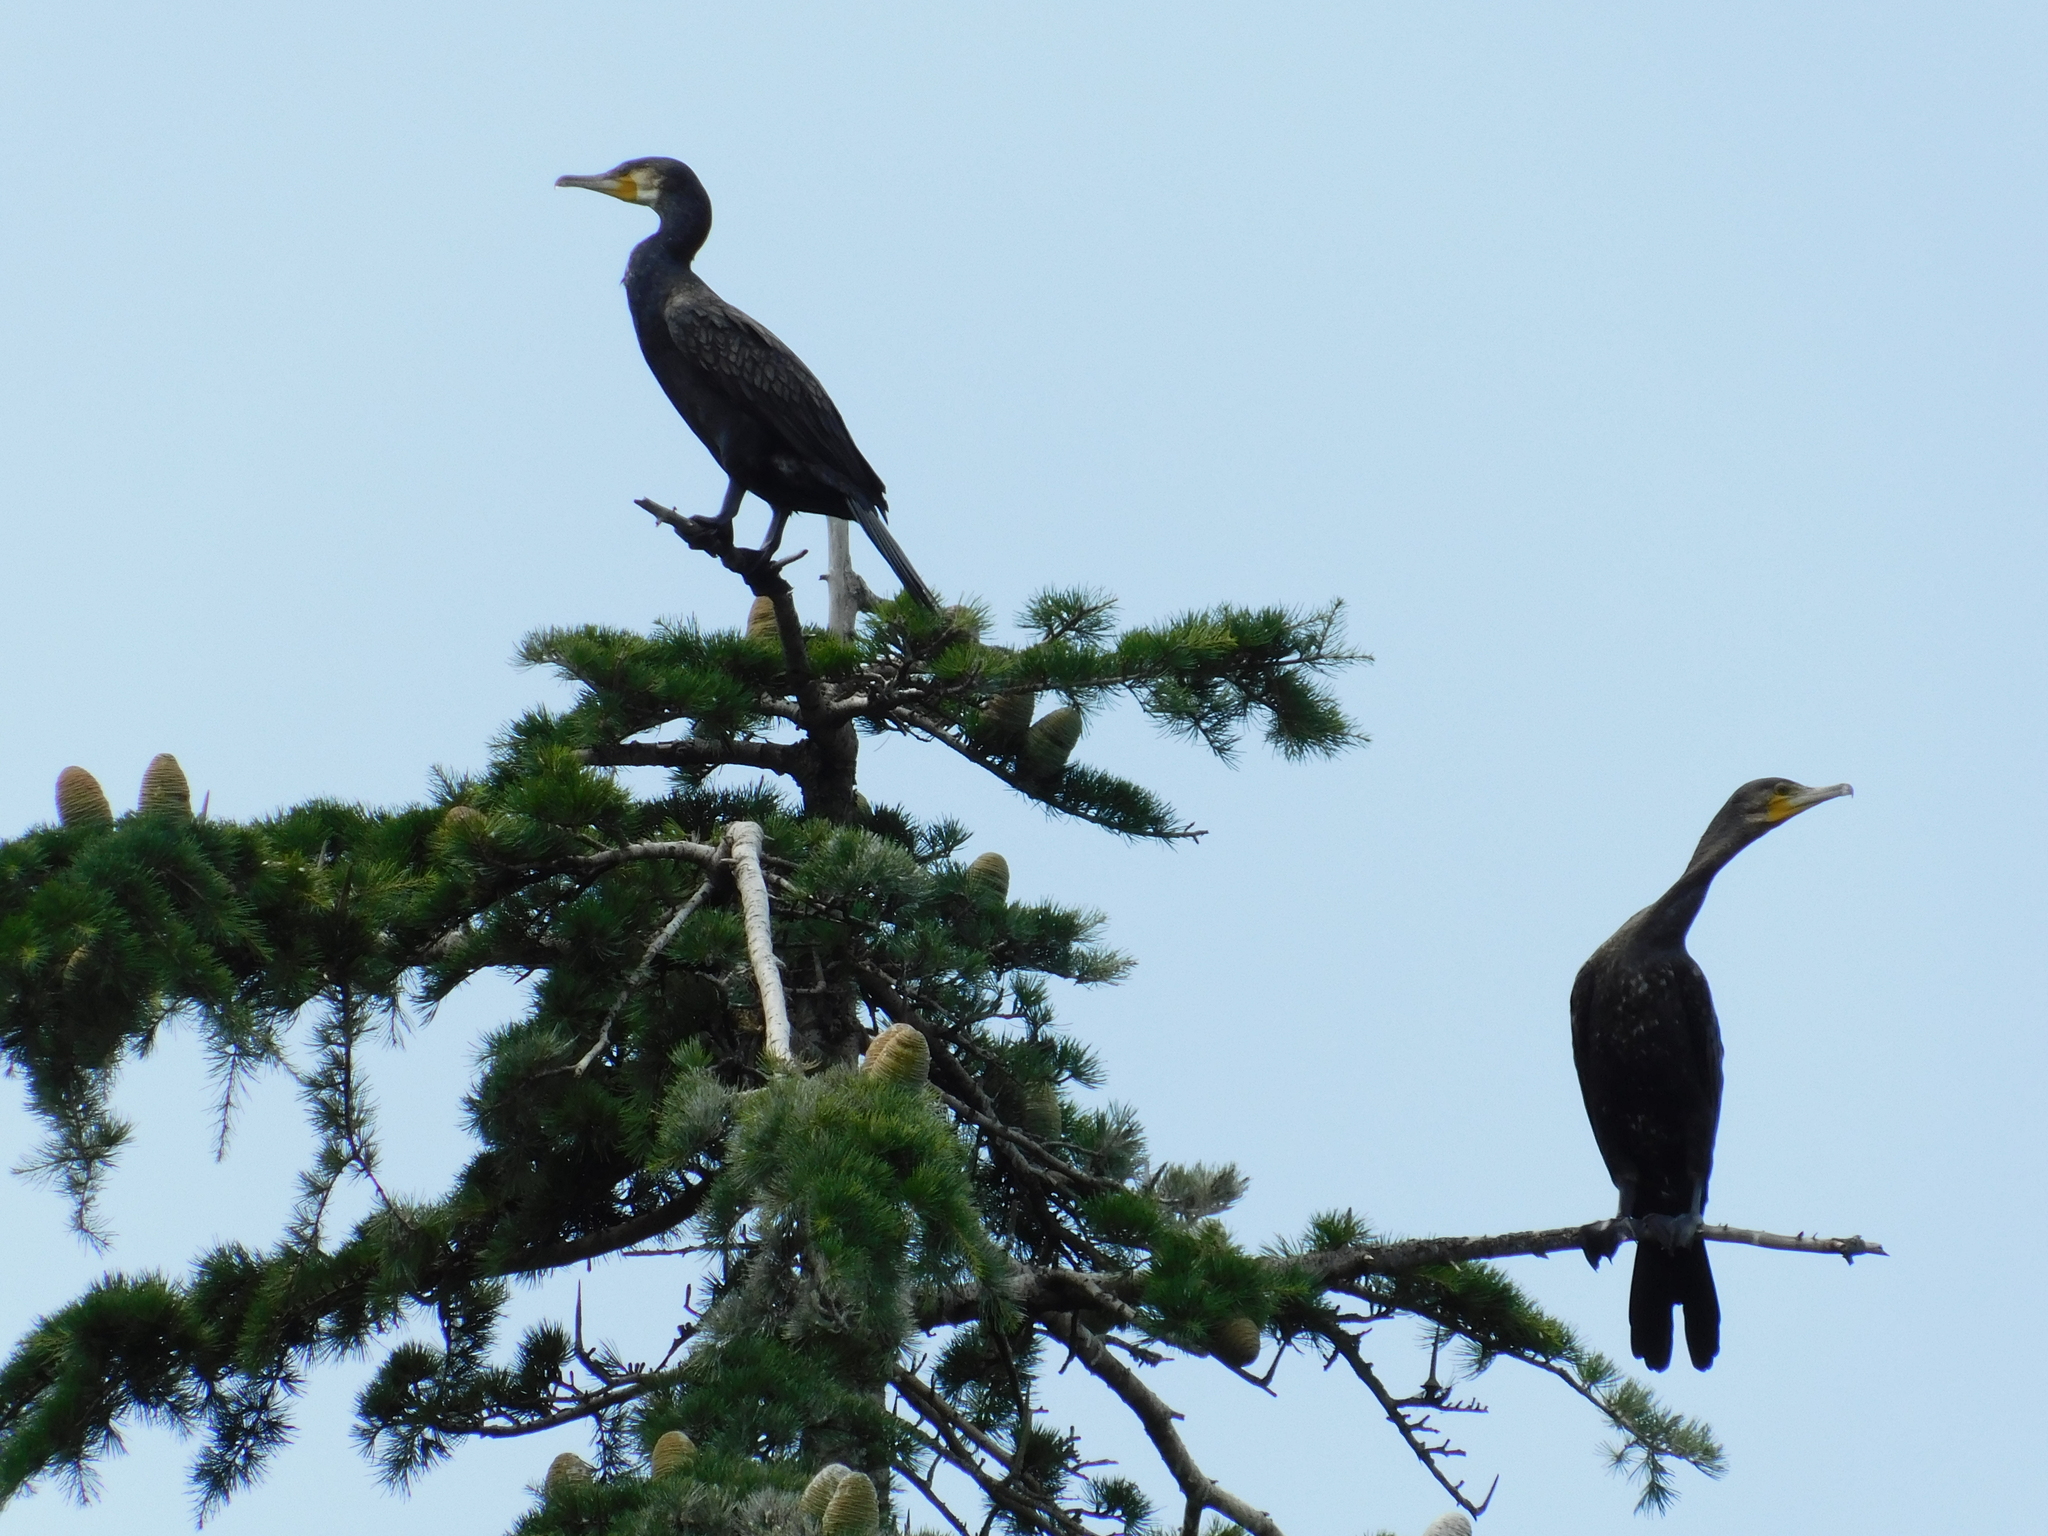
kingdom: Animalia
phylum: Chordata
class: Aves
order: Suliformes
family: Phalacrocoracidae
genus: Phalacrocorax
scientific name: Phalacrocorax carbo
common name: Great cormorant
